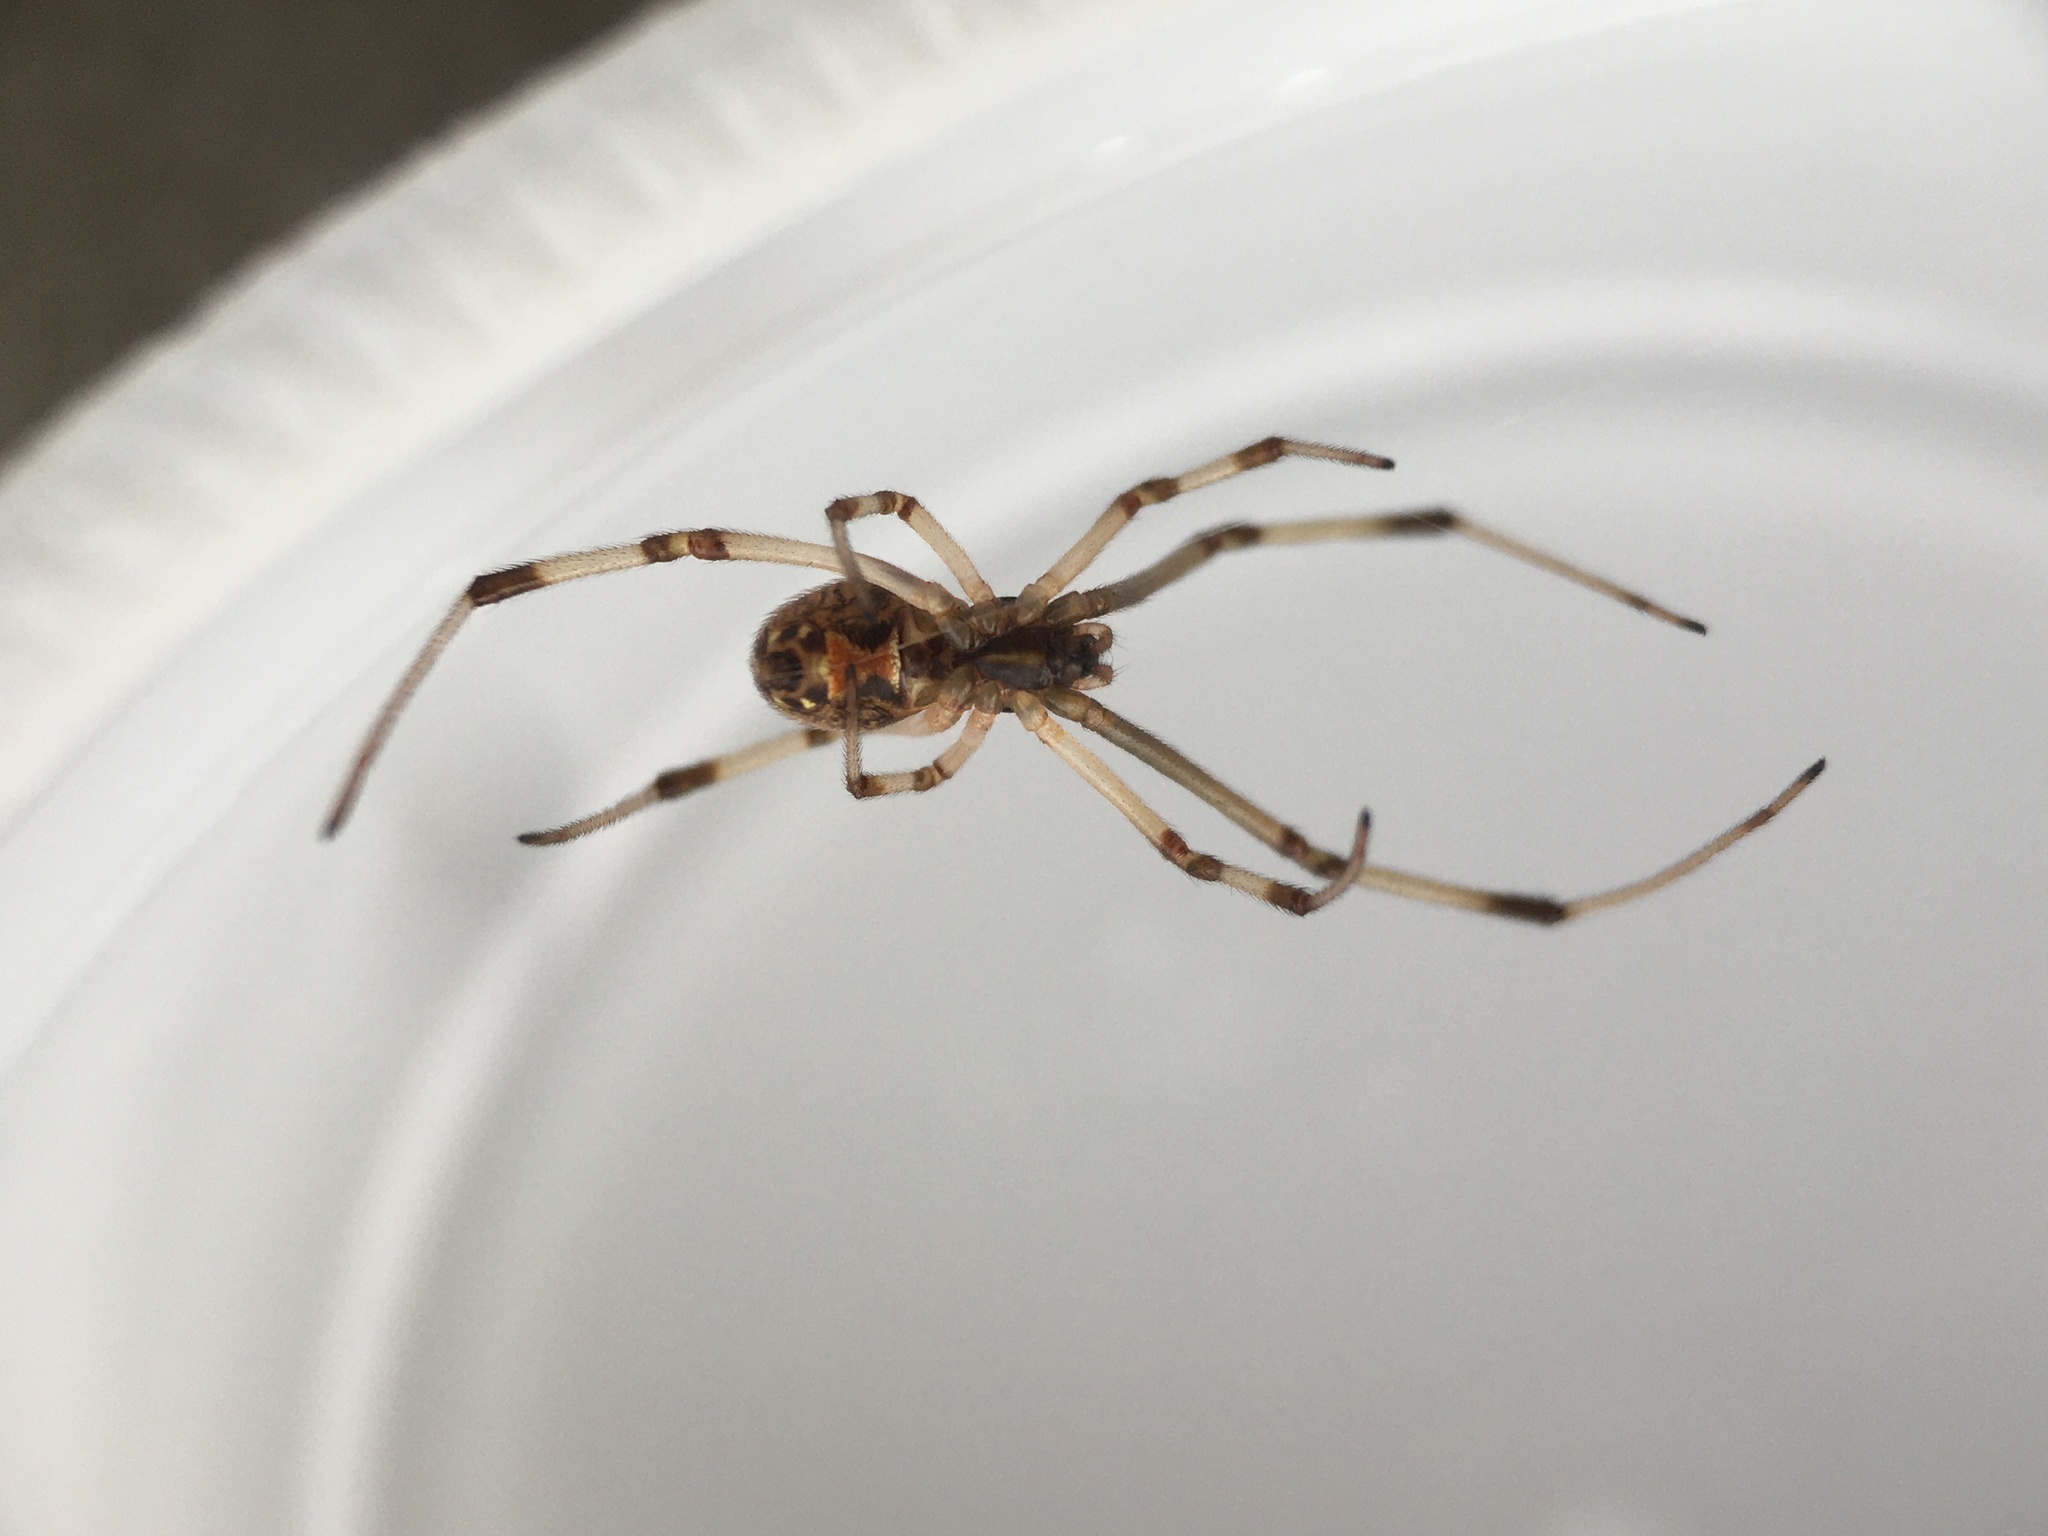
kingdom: Animalia
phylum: Arthropoda
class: Arachnida
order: Araneae
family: Theridiidae
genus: Latrodectus
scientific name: Latrodectus geometricus
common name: Brown widow spider
